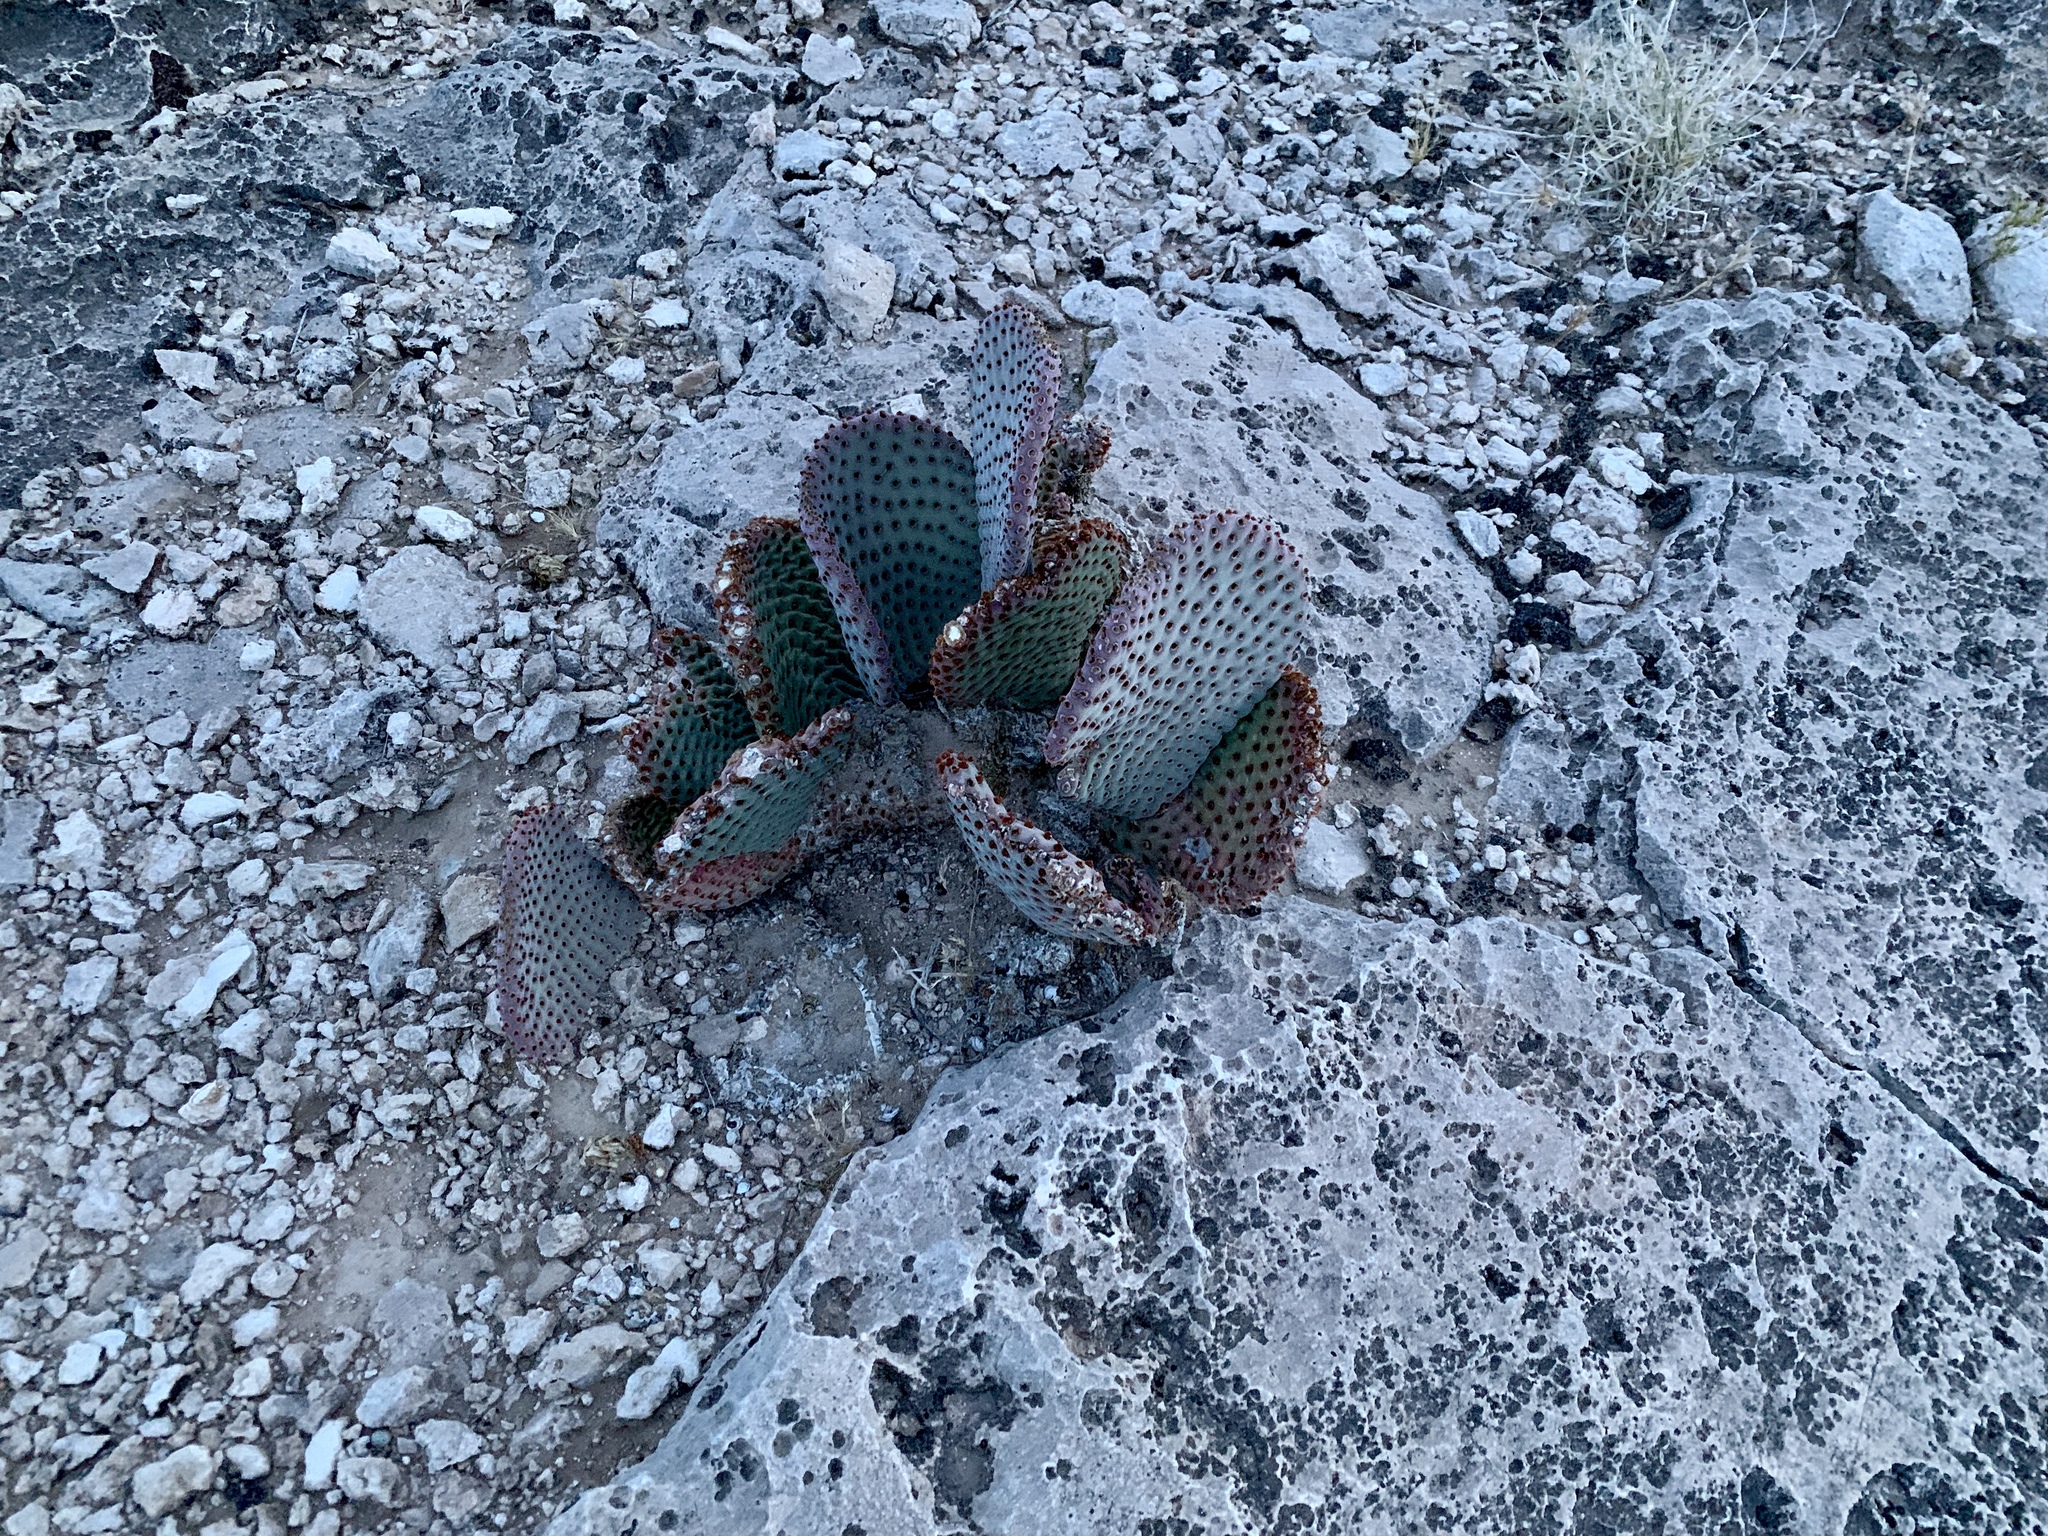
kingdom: Plantae
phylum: Tracheophyta
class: Magnoliopsida
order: Caryophyllales
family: Cactaceae
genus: Opuntia
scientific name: Opuntia basilaris
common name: Beavertail prickly-pear
